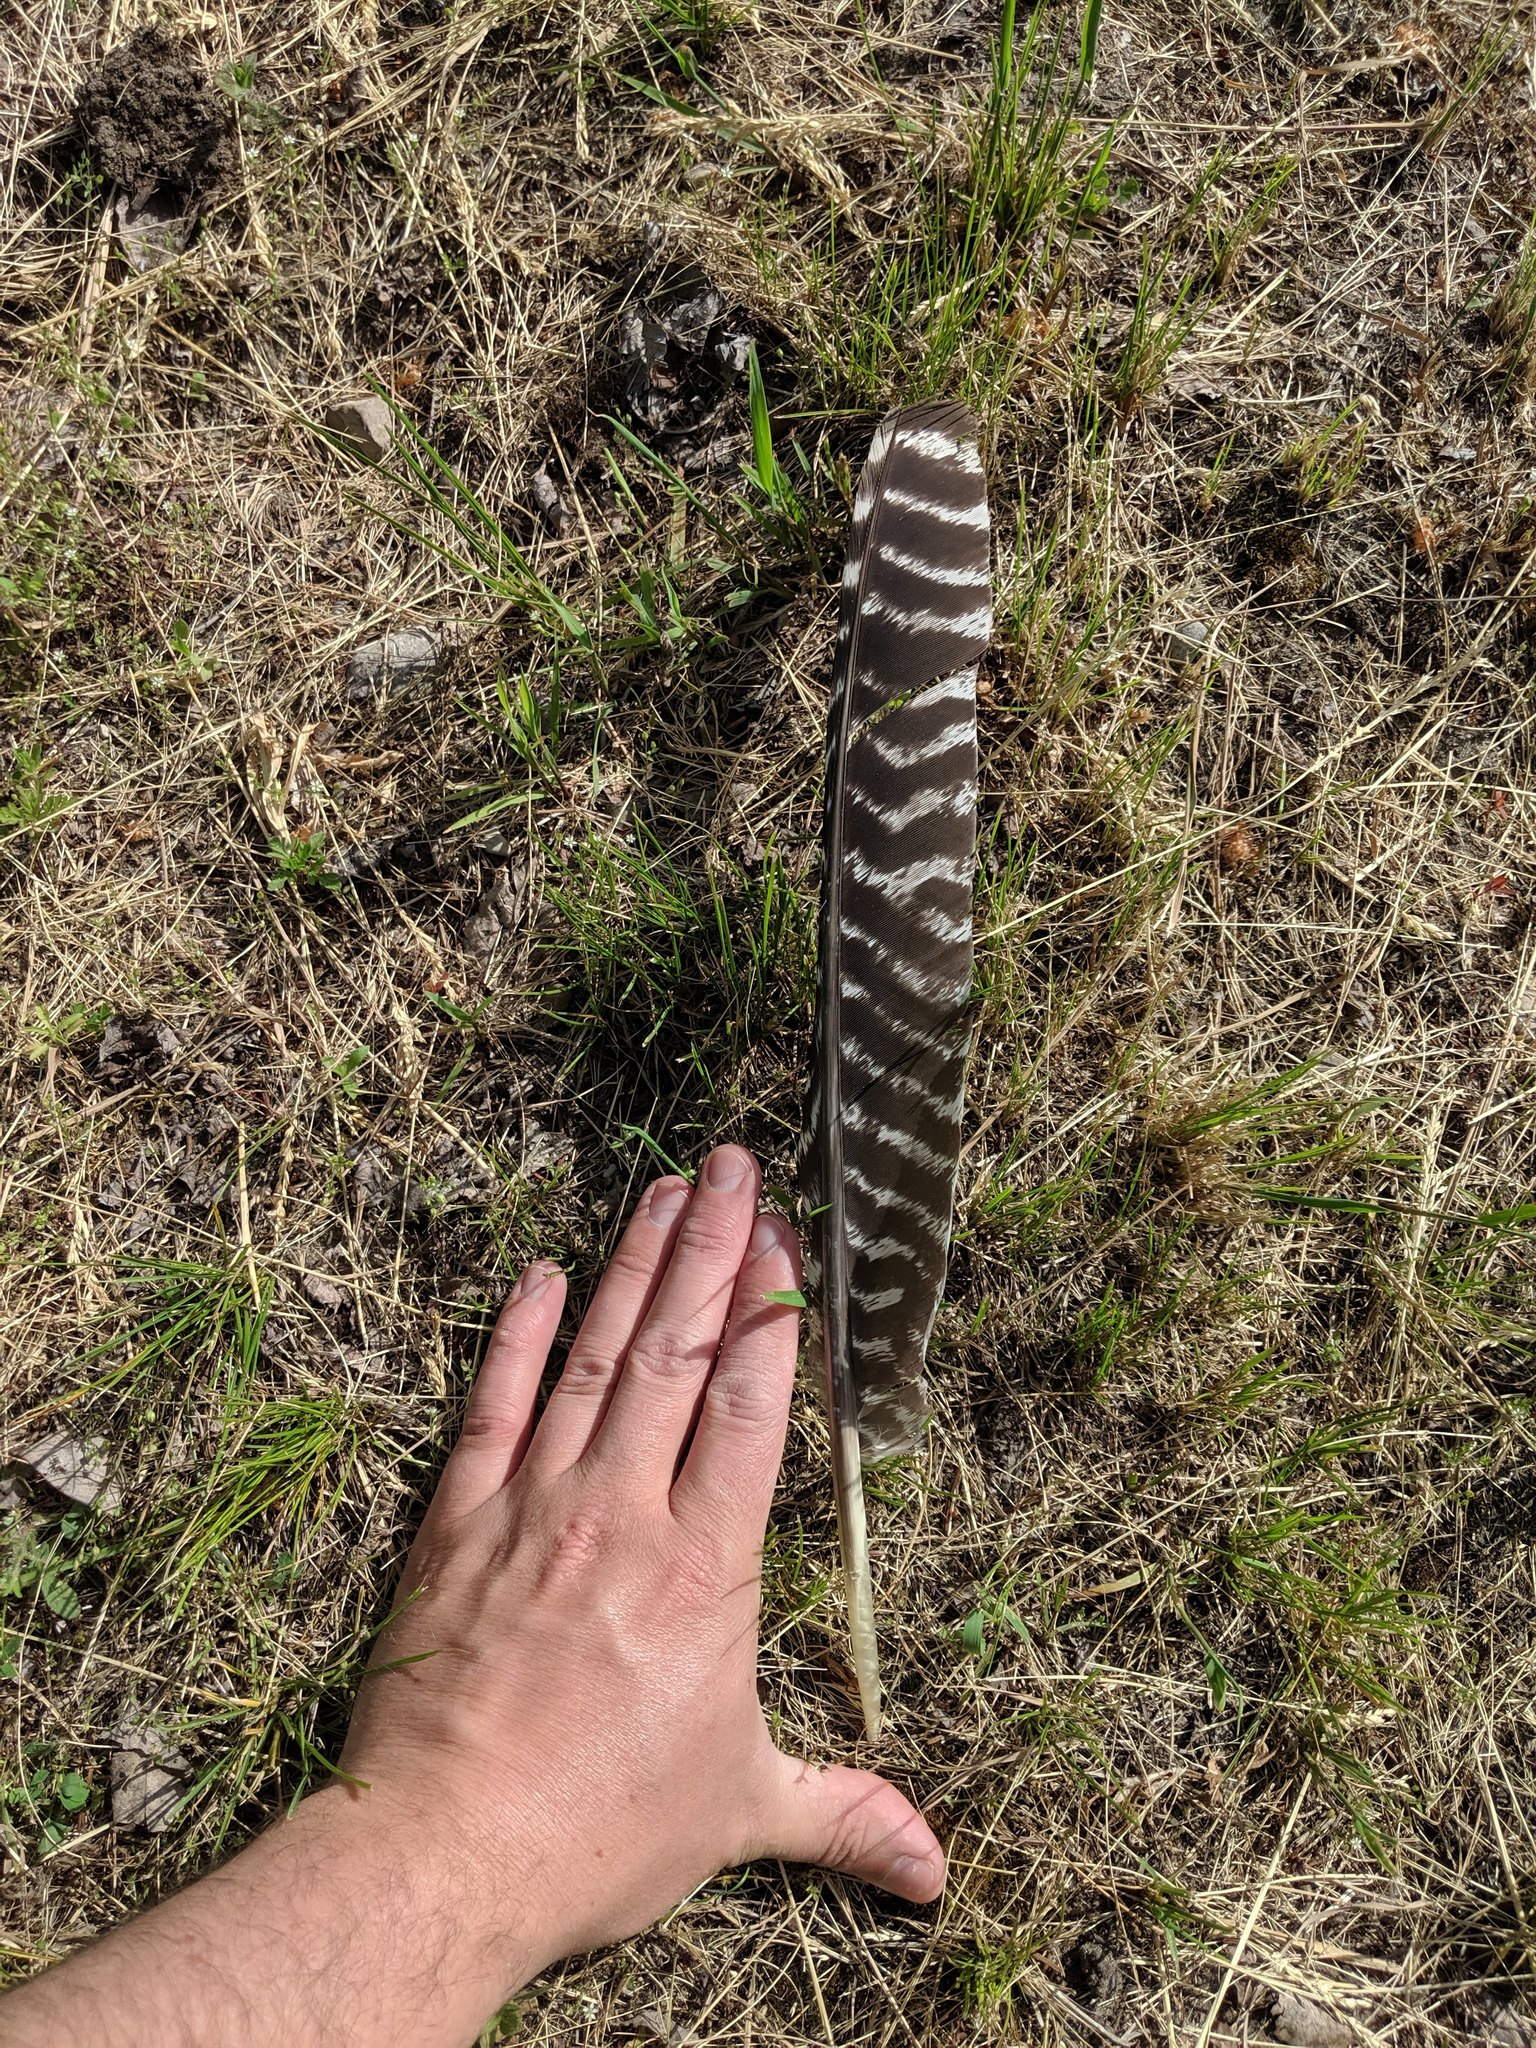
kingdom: Animalia
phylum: Chordata
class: Aves
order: Galliformes
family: Phasianidae
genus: Meleagris
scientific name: Meleagris gallopavo
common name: Wild turkey
